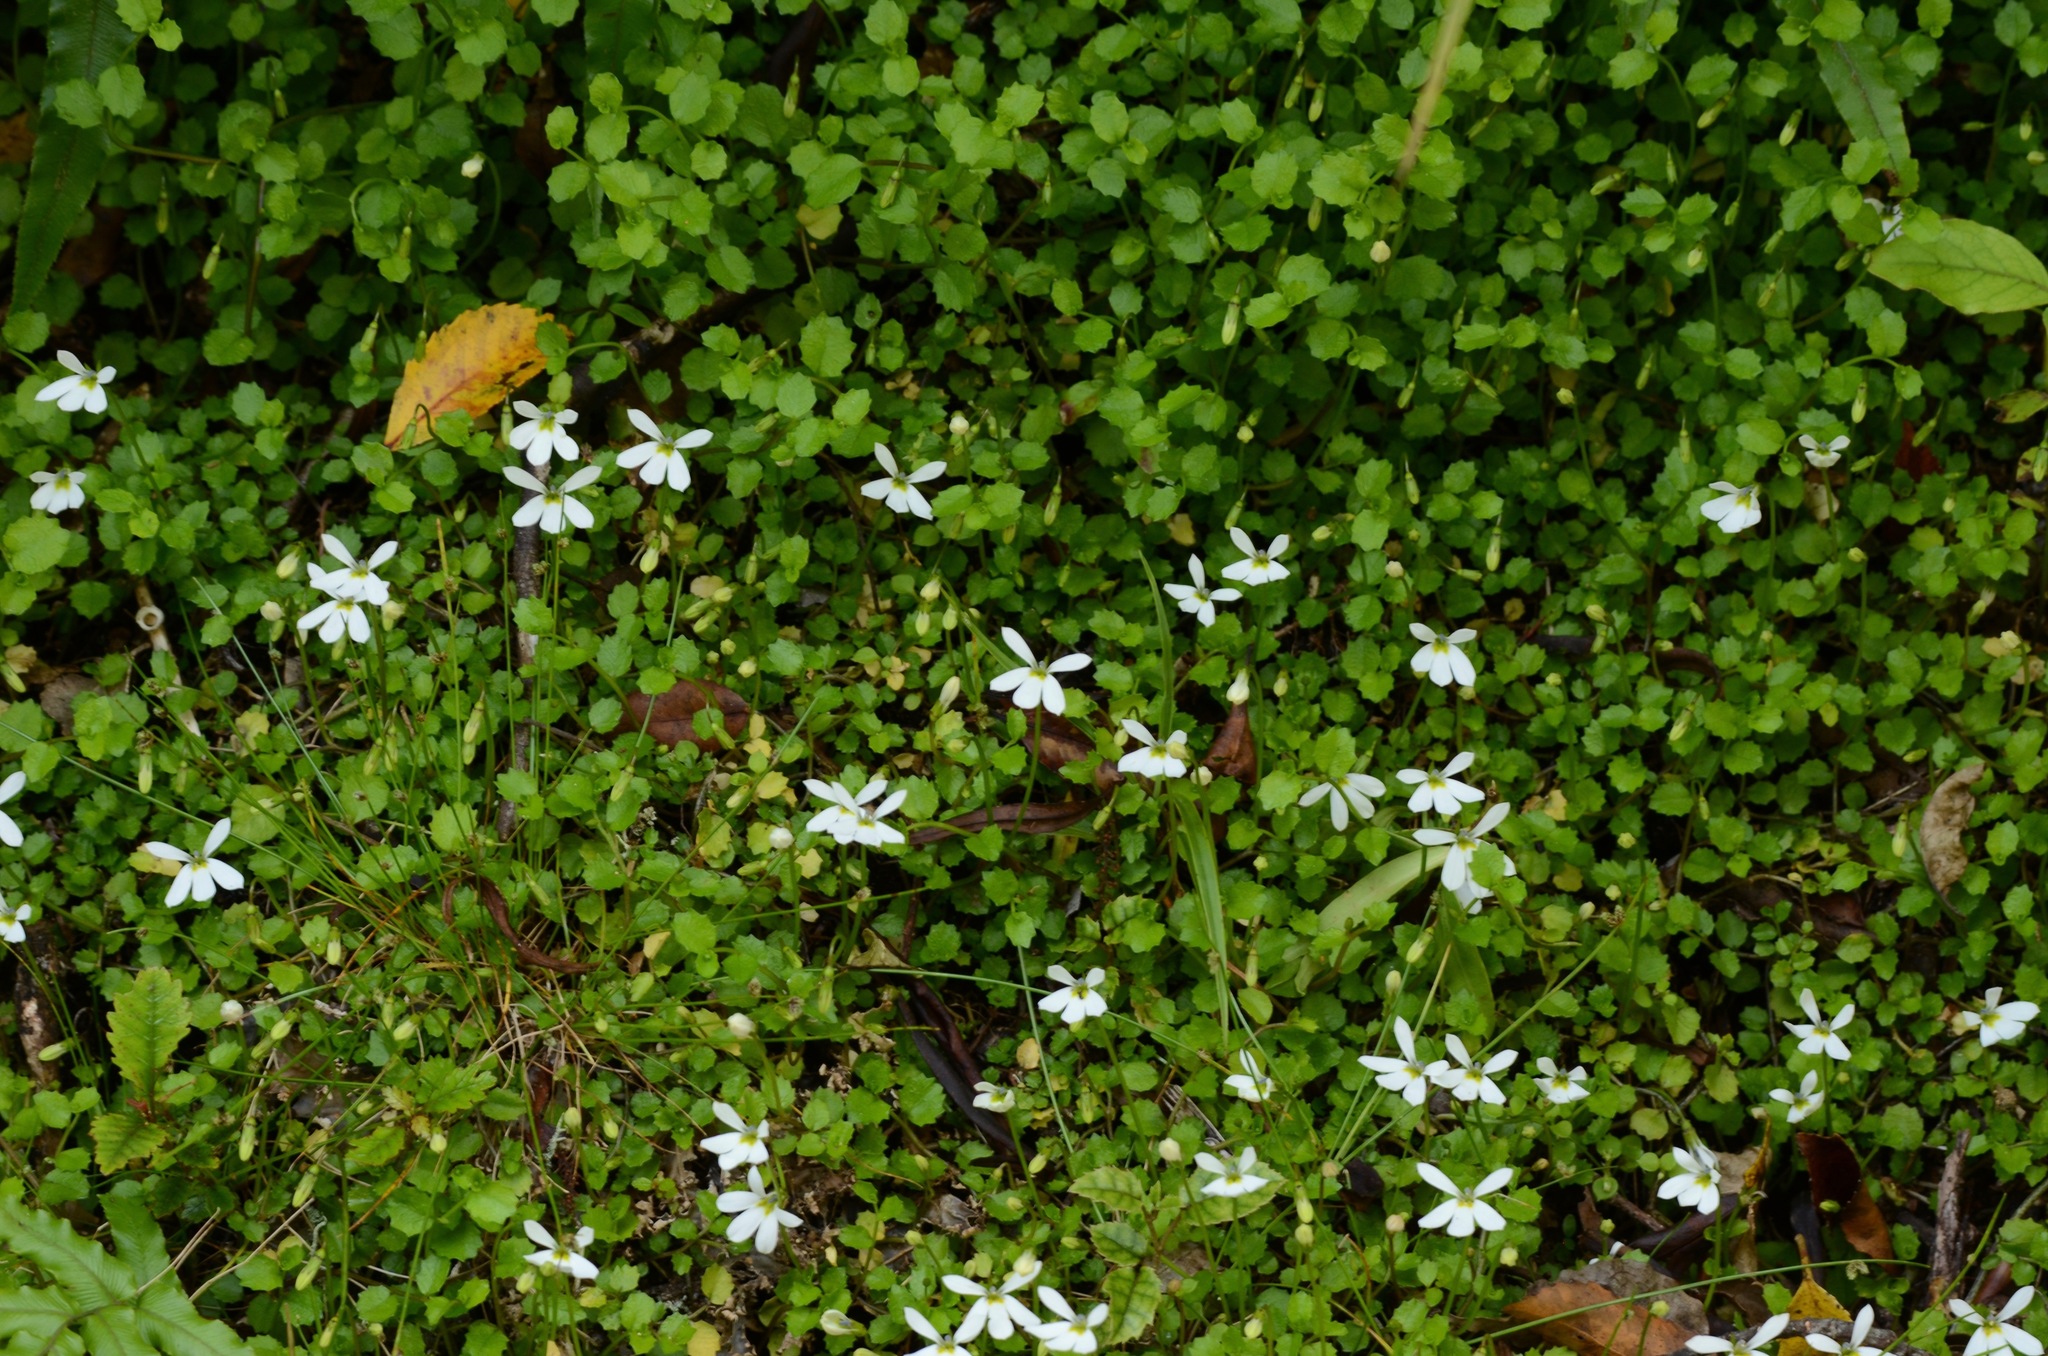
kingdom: Plantae
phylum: Tracheophyta
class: Magnoliopsida
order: Asterales
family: Campanulaceae
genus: Lobelia
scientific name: Lobelia angulata
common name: Lawn lobelia
